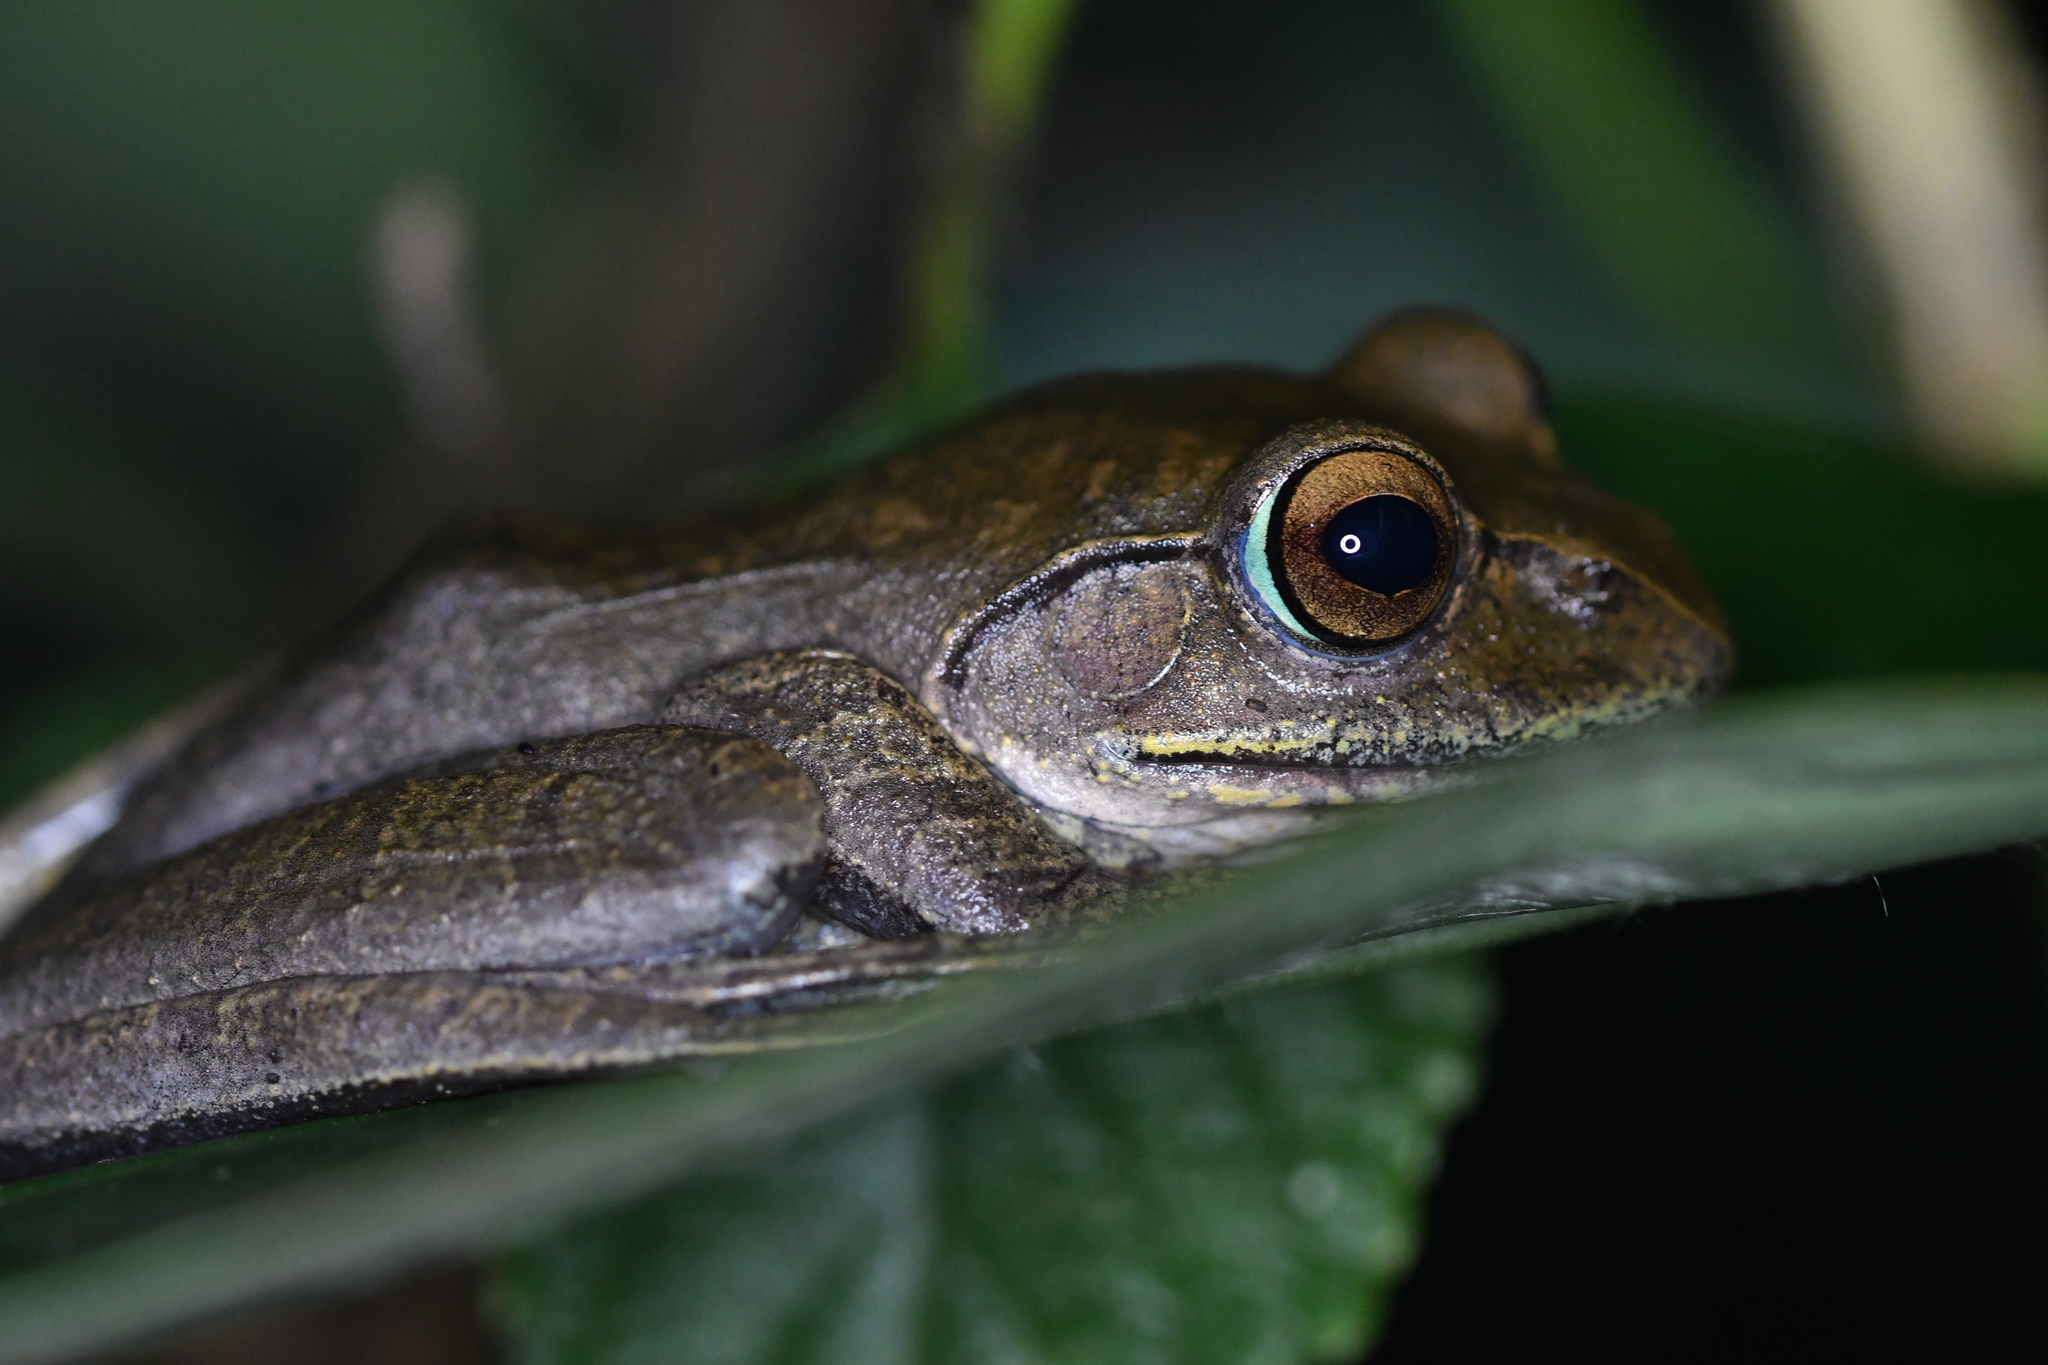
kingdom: Animalia
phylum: Chordata
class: Amphibia
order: Anura
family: Mantellidae
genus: Boophis
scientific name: Boophis madagascariensis
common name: Madagascar bright-eyed frog
